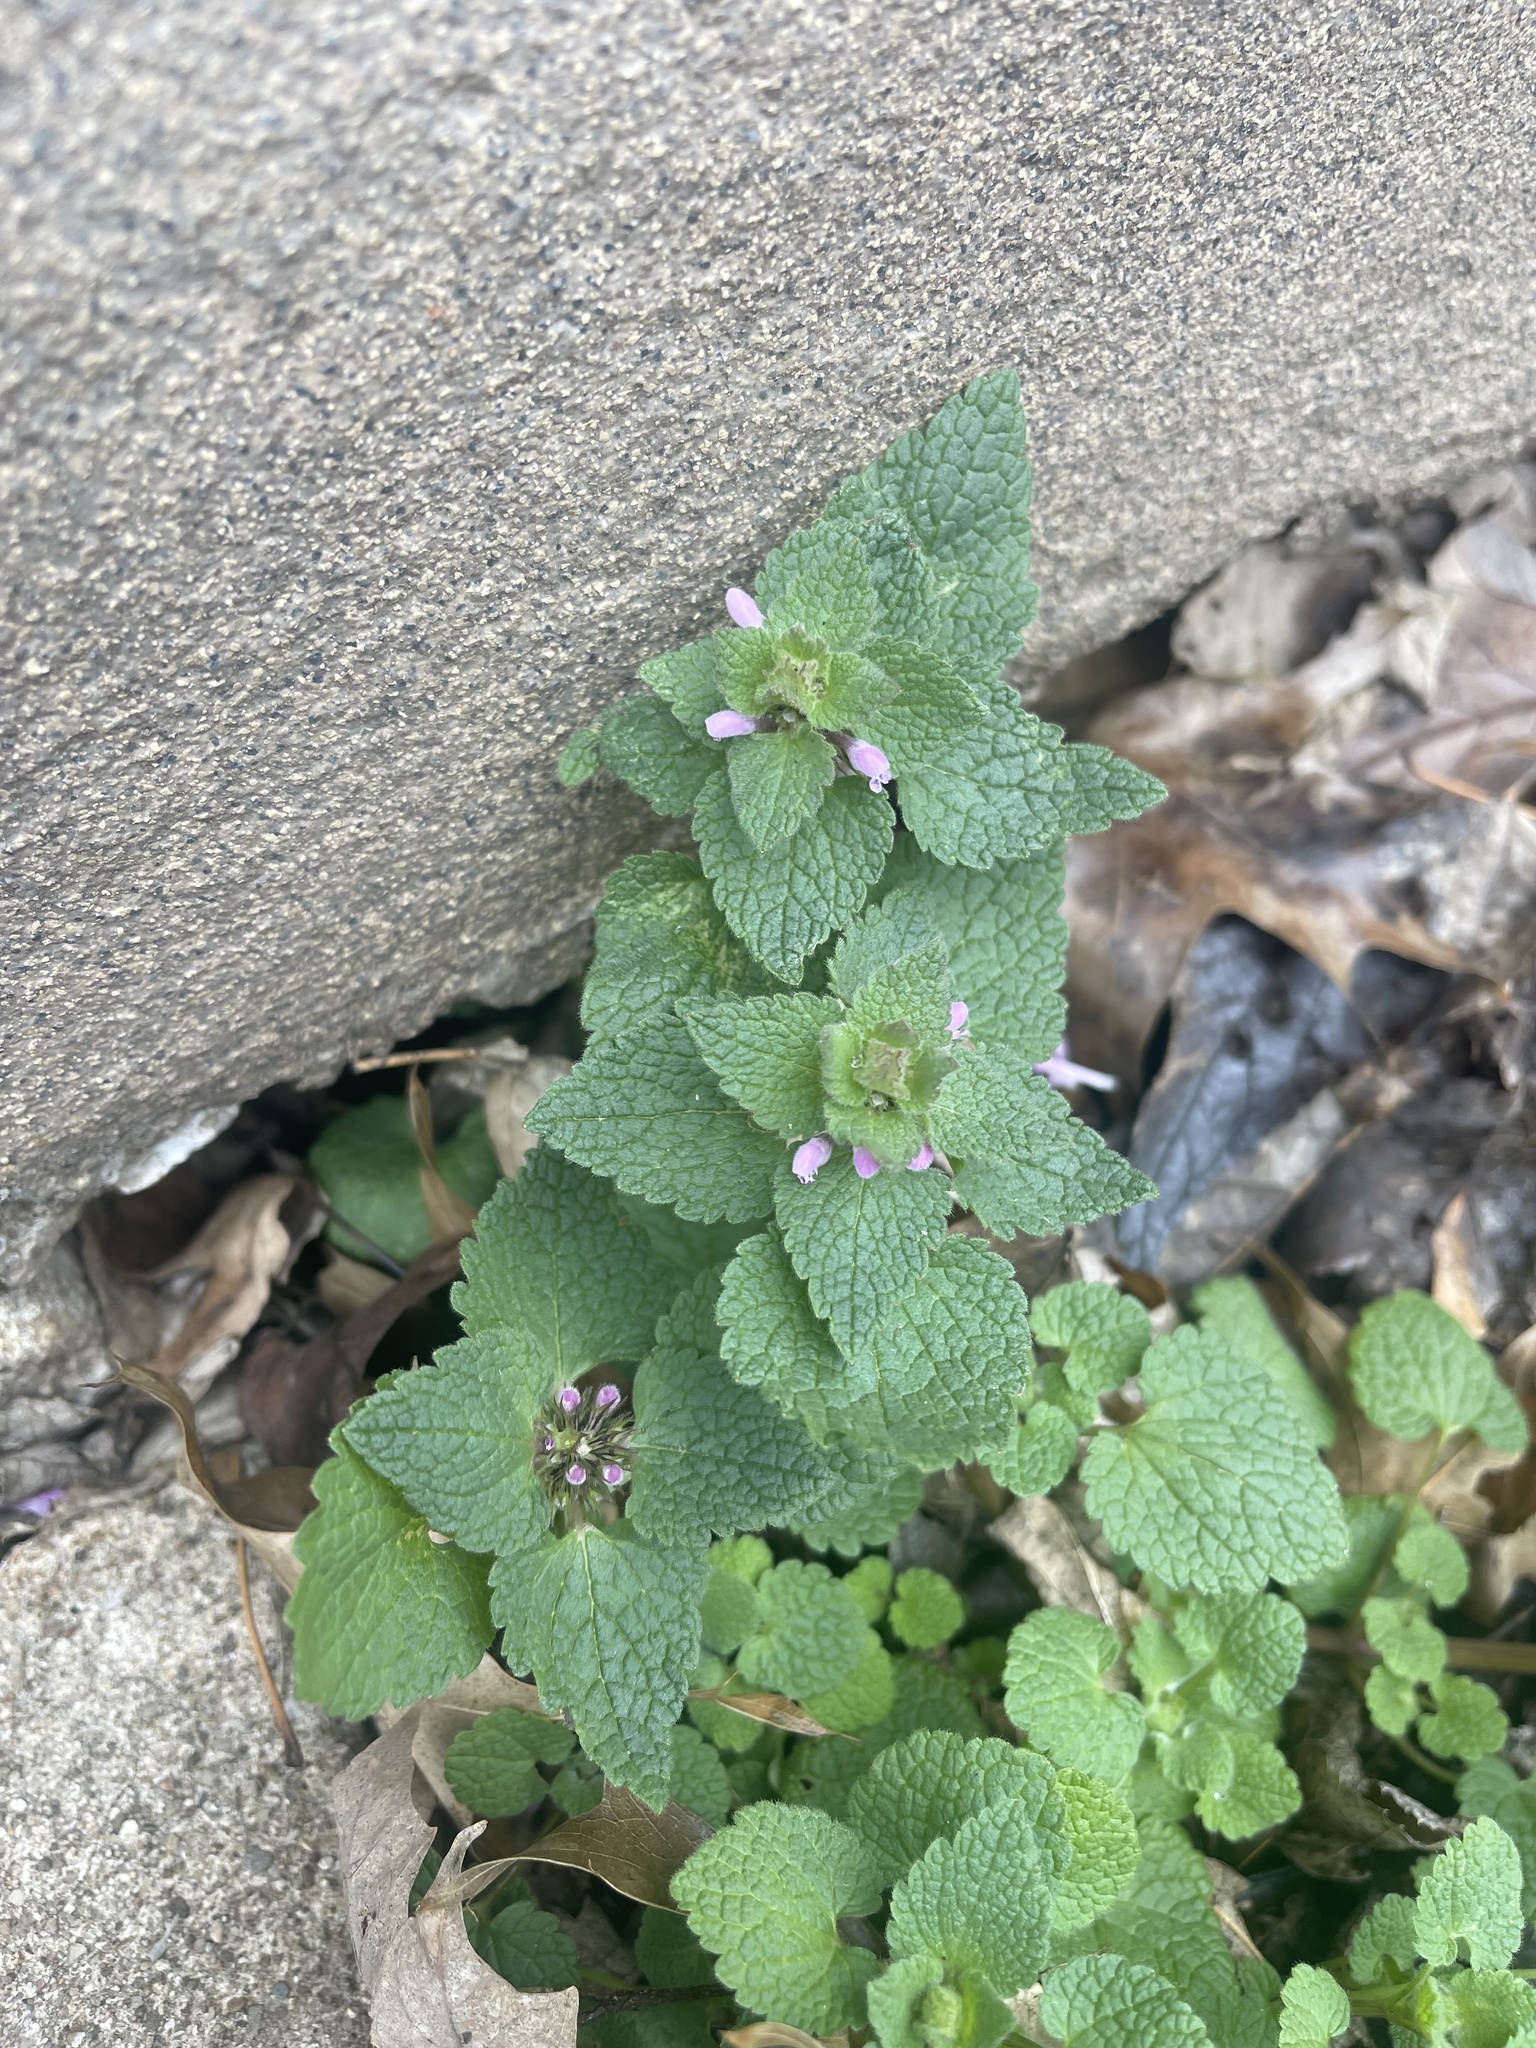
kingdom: Plantae
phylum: Tracheophyta
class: Magnoliopsida
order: Lamiales
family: Lamiaceae
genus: Lamium
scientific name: Lamium purpureum
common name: Red dead-nettle
